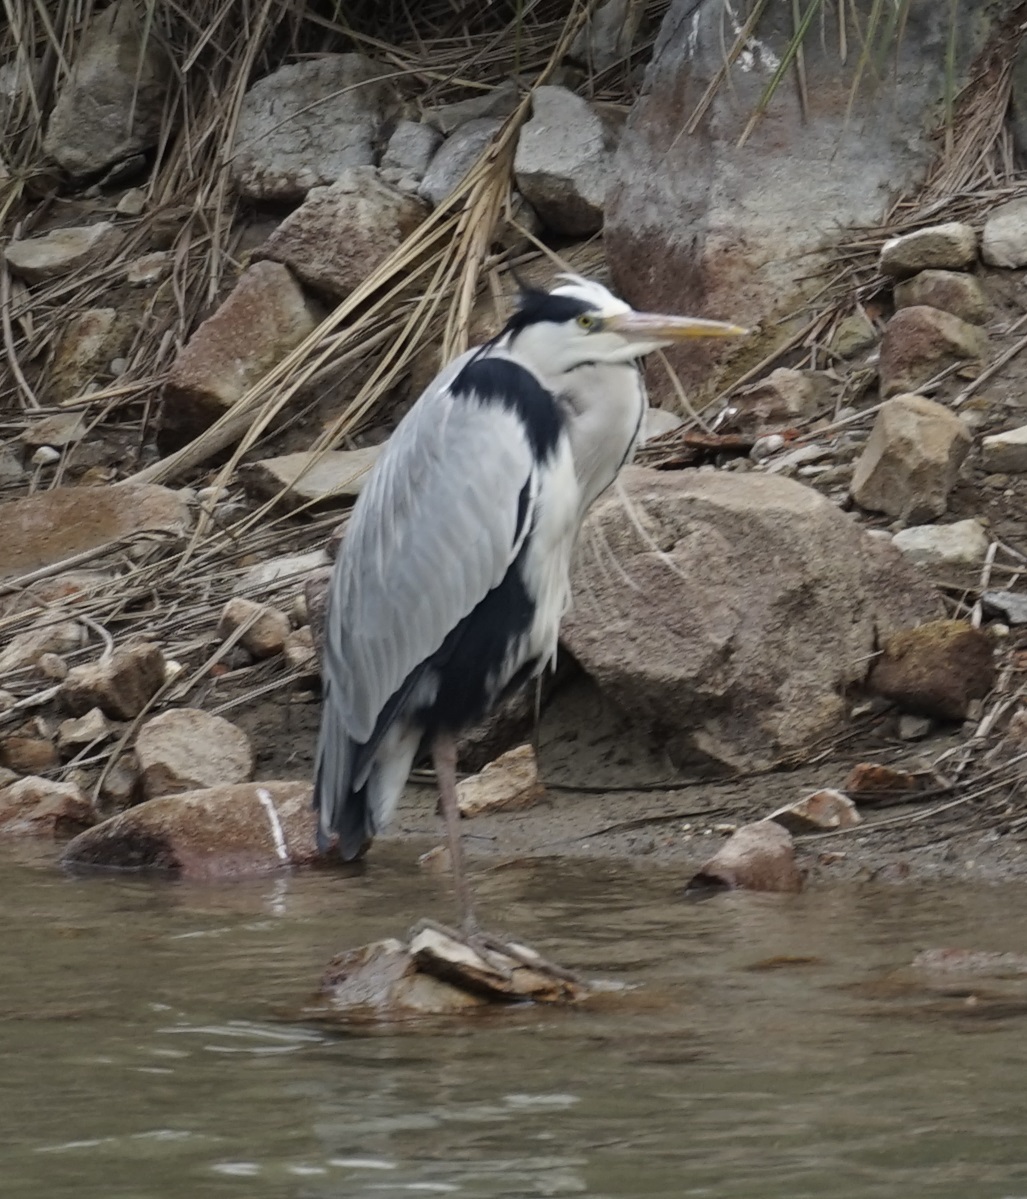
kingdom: Animalia
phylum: Chordata
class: Aves
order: Pelecaniformes
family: Ardeidae
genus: Ardea
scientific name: Ardea cinerea
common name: Grey heron
